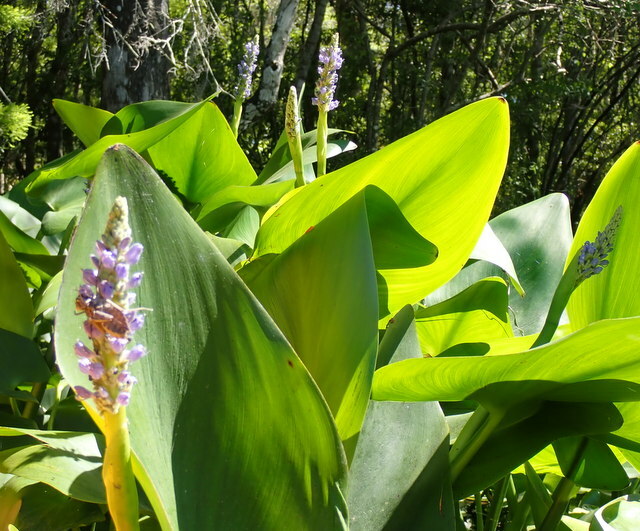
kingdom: Plantae
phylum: Tracheophyta
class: Liliopsida
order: Commelinales
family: Pontederiaceae
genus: Pontederia
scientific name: Pontederia cordata
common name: Pickerelweed
